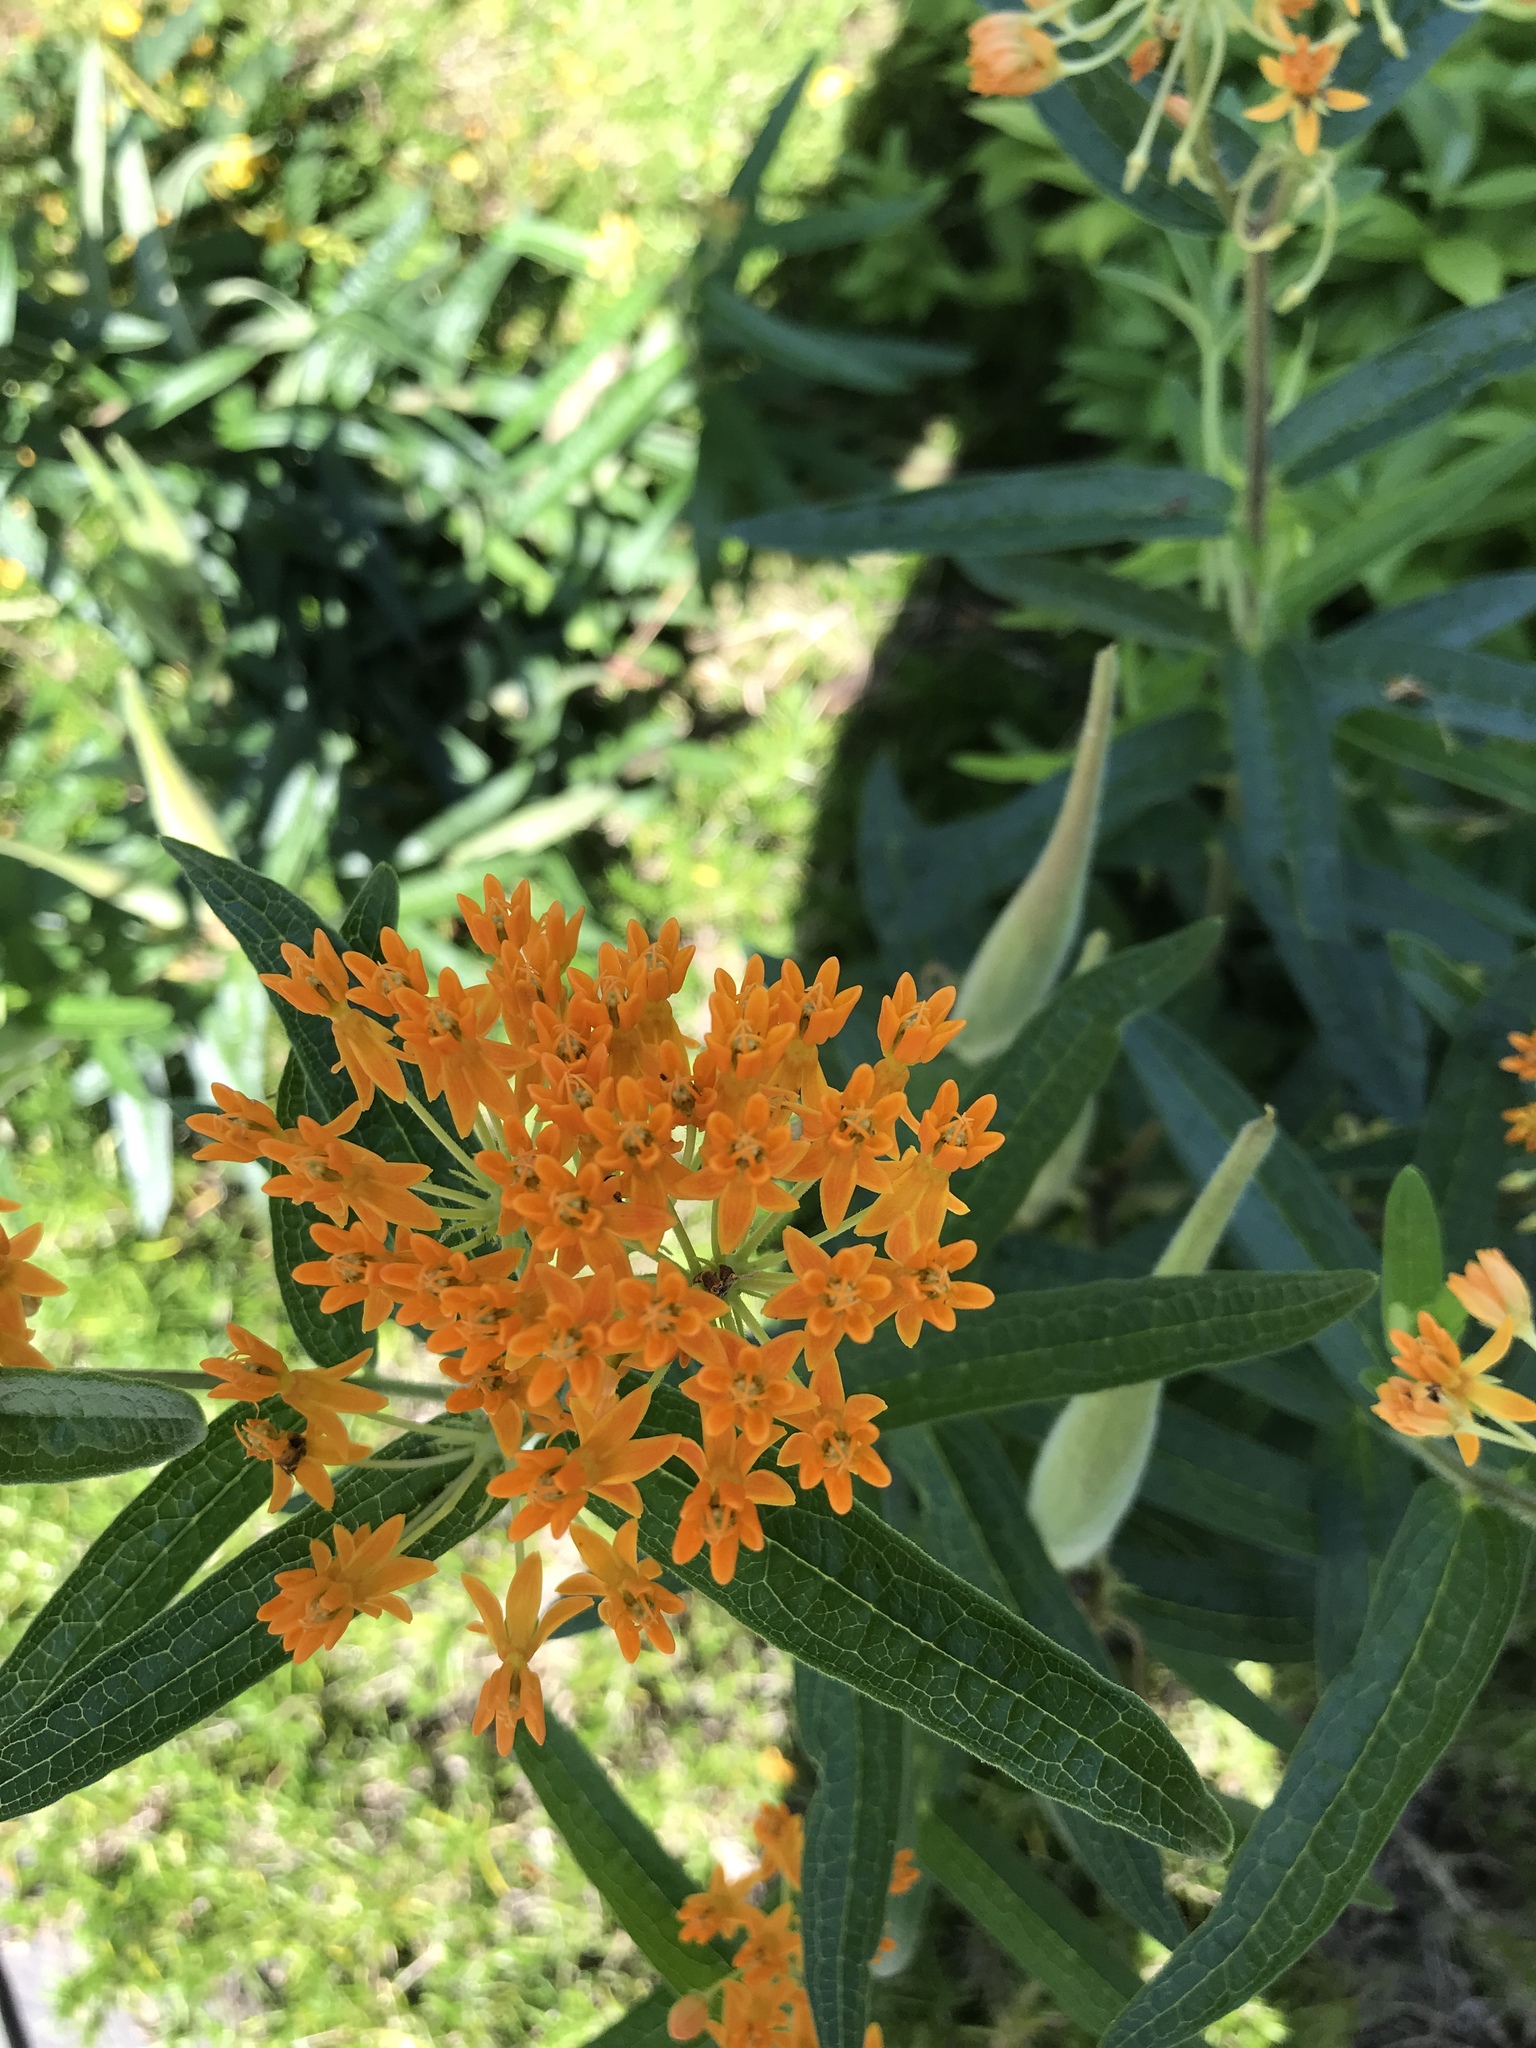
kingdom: Plantae
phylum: Tracheophyta
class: Magnoliopsida
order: Gentianales
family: Apocynaceae
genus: Asclepias
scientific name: Asclepias tuberosa
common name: Butterfly milkweed
